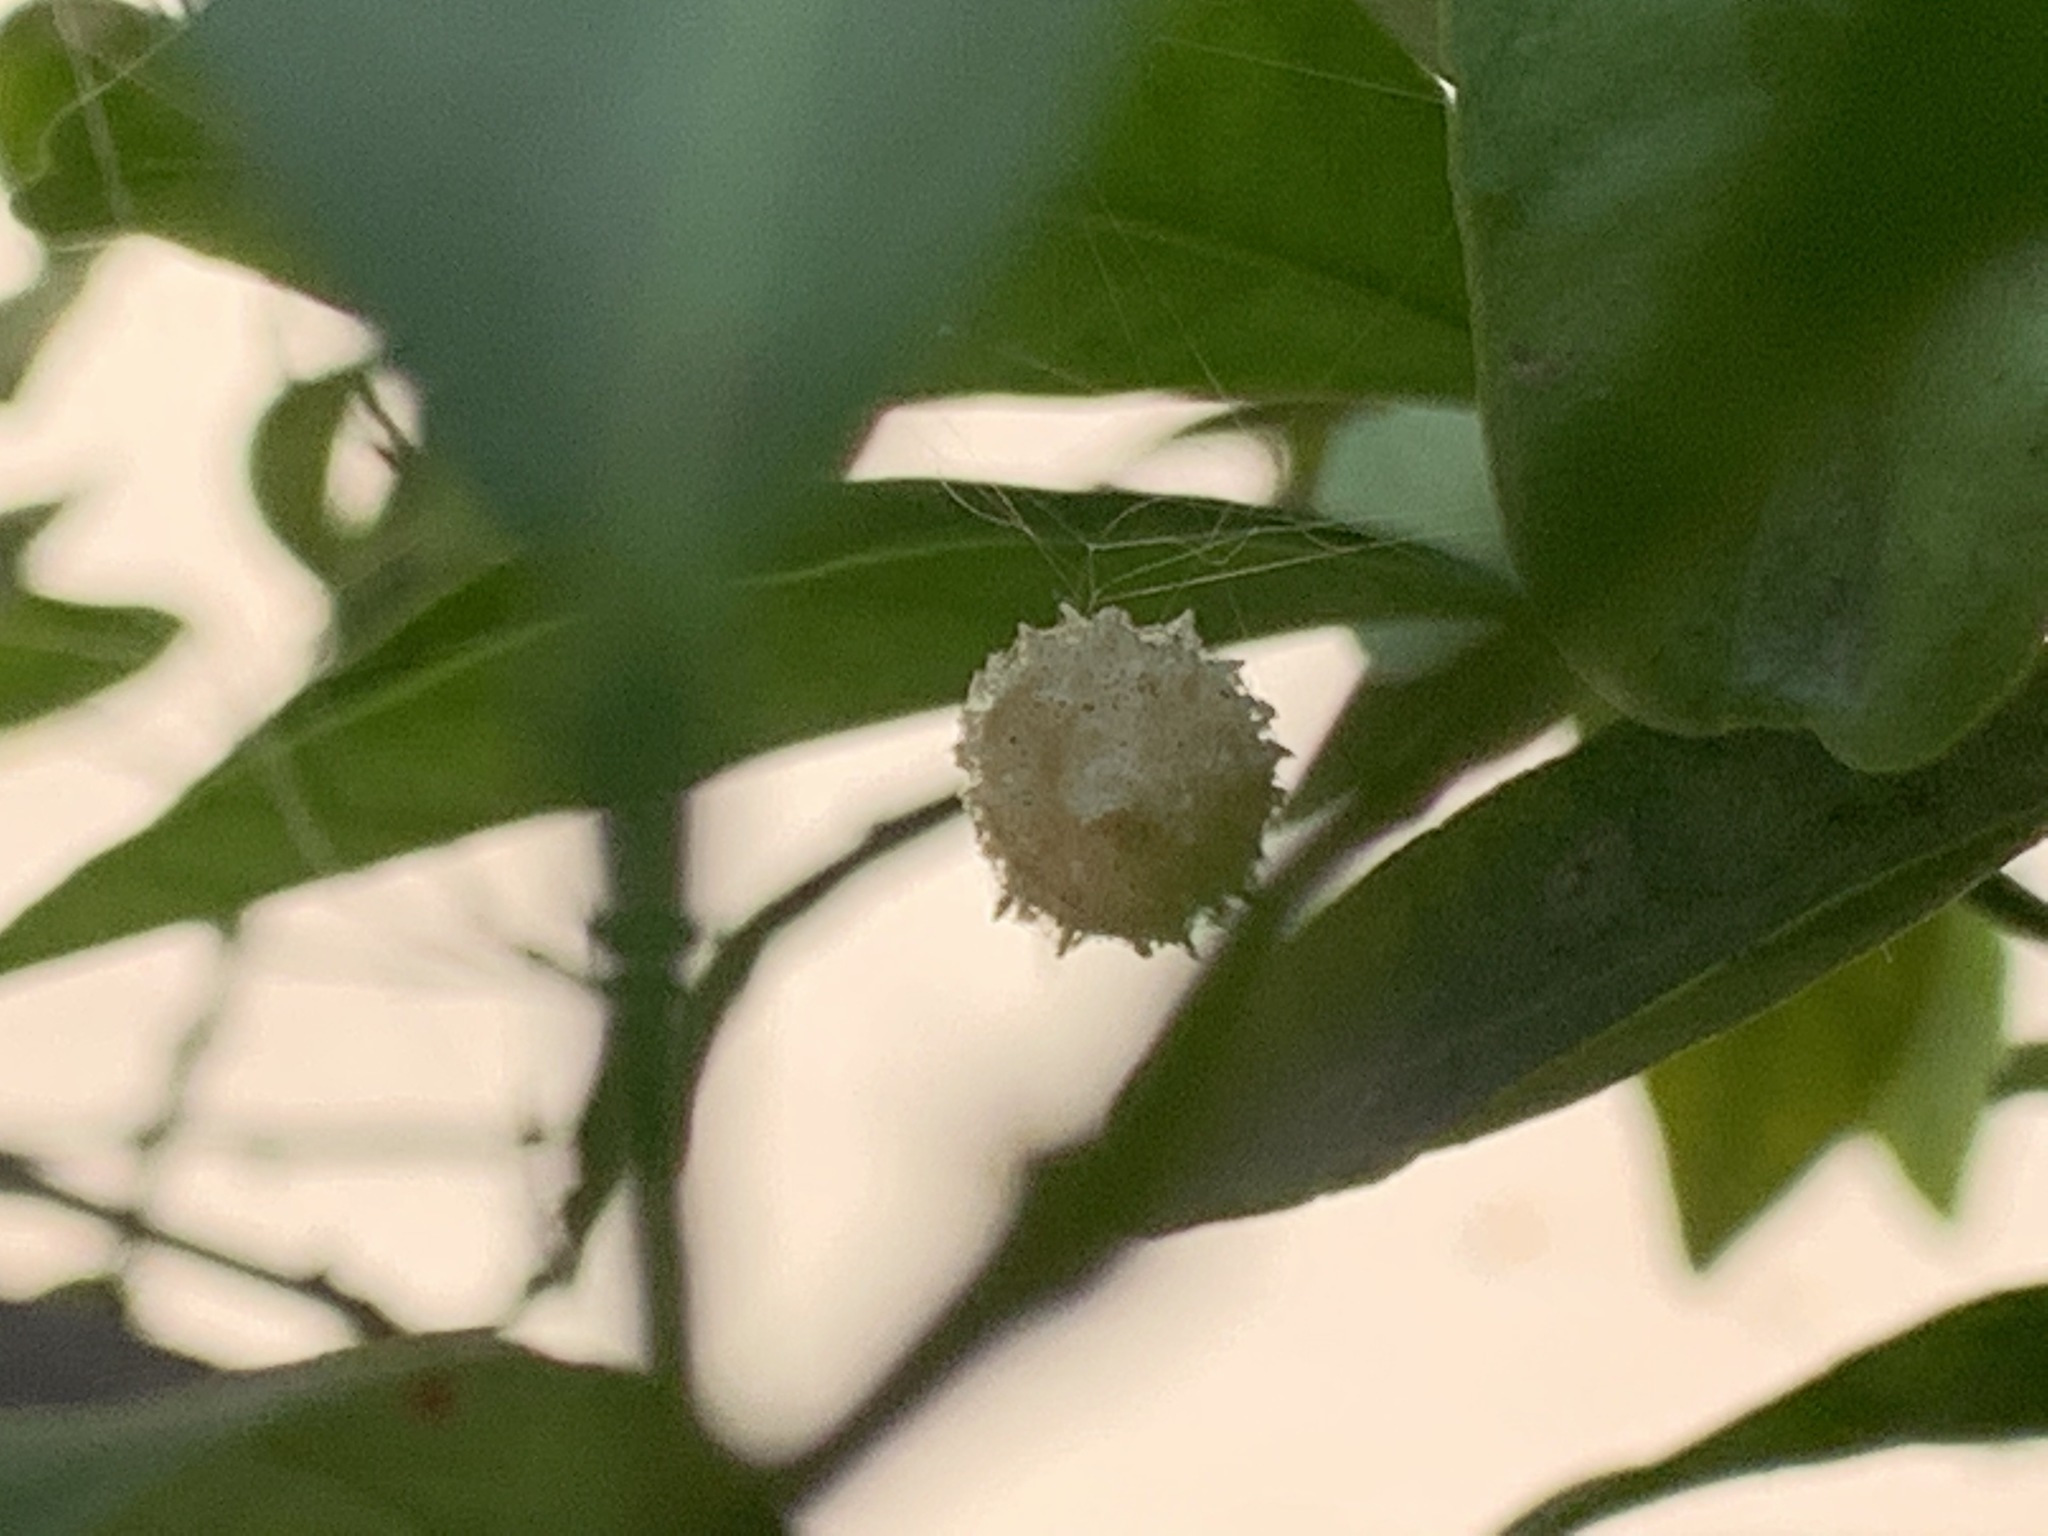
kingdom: Animalia
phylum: Arthropoda
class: Arachnida
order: Araneae
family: Theridiidae
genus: Latrodectus
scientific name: Latrodectus geometricus
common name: Brown widow spider
